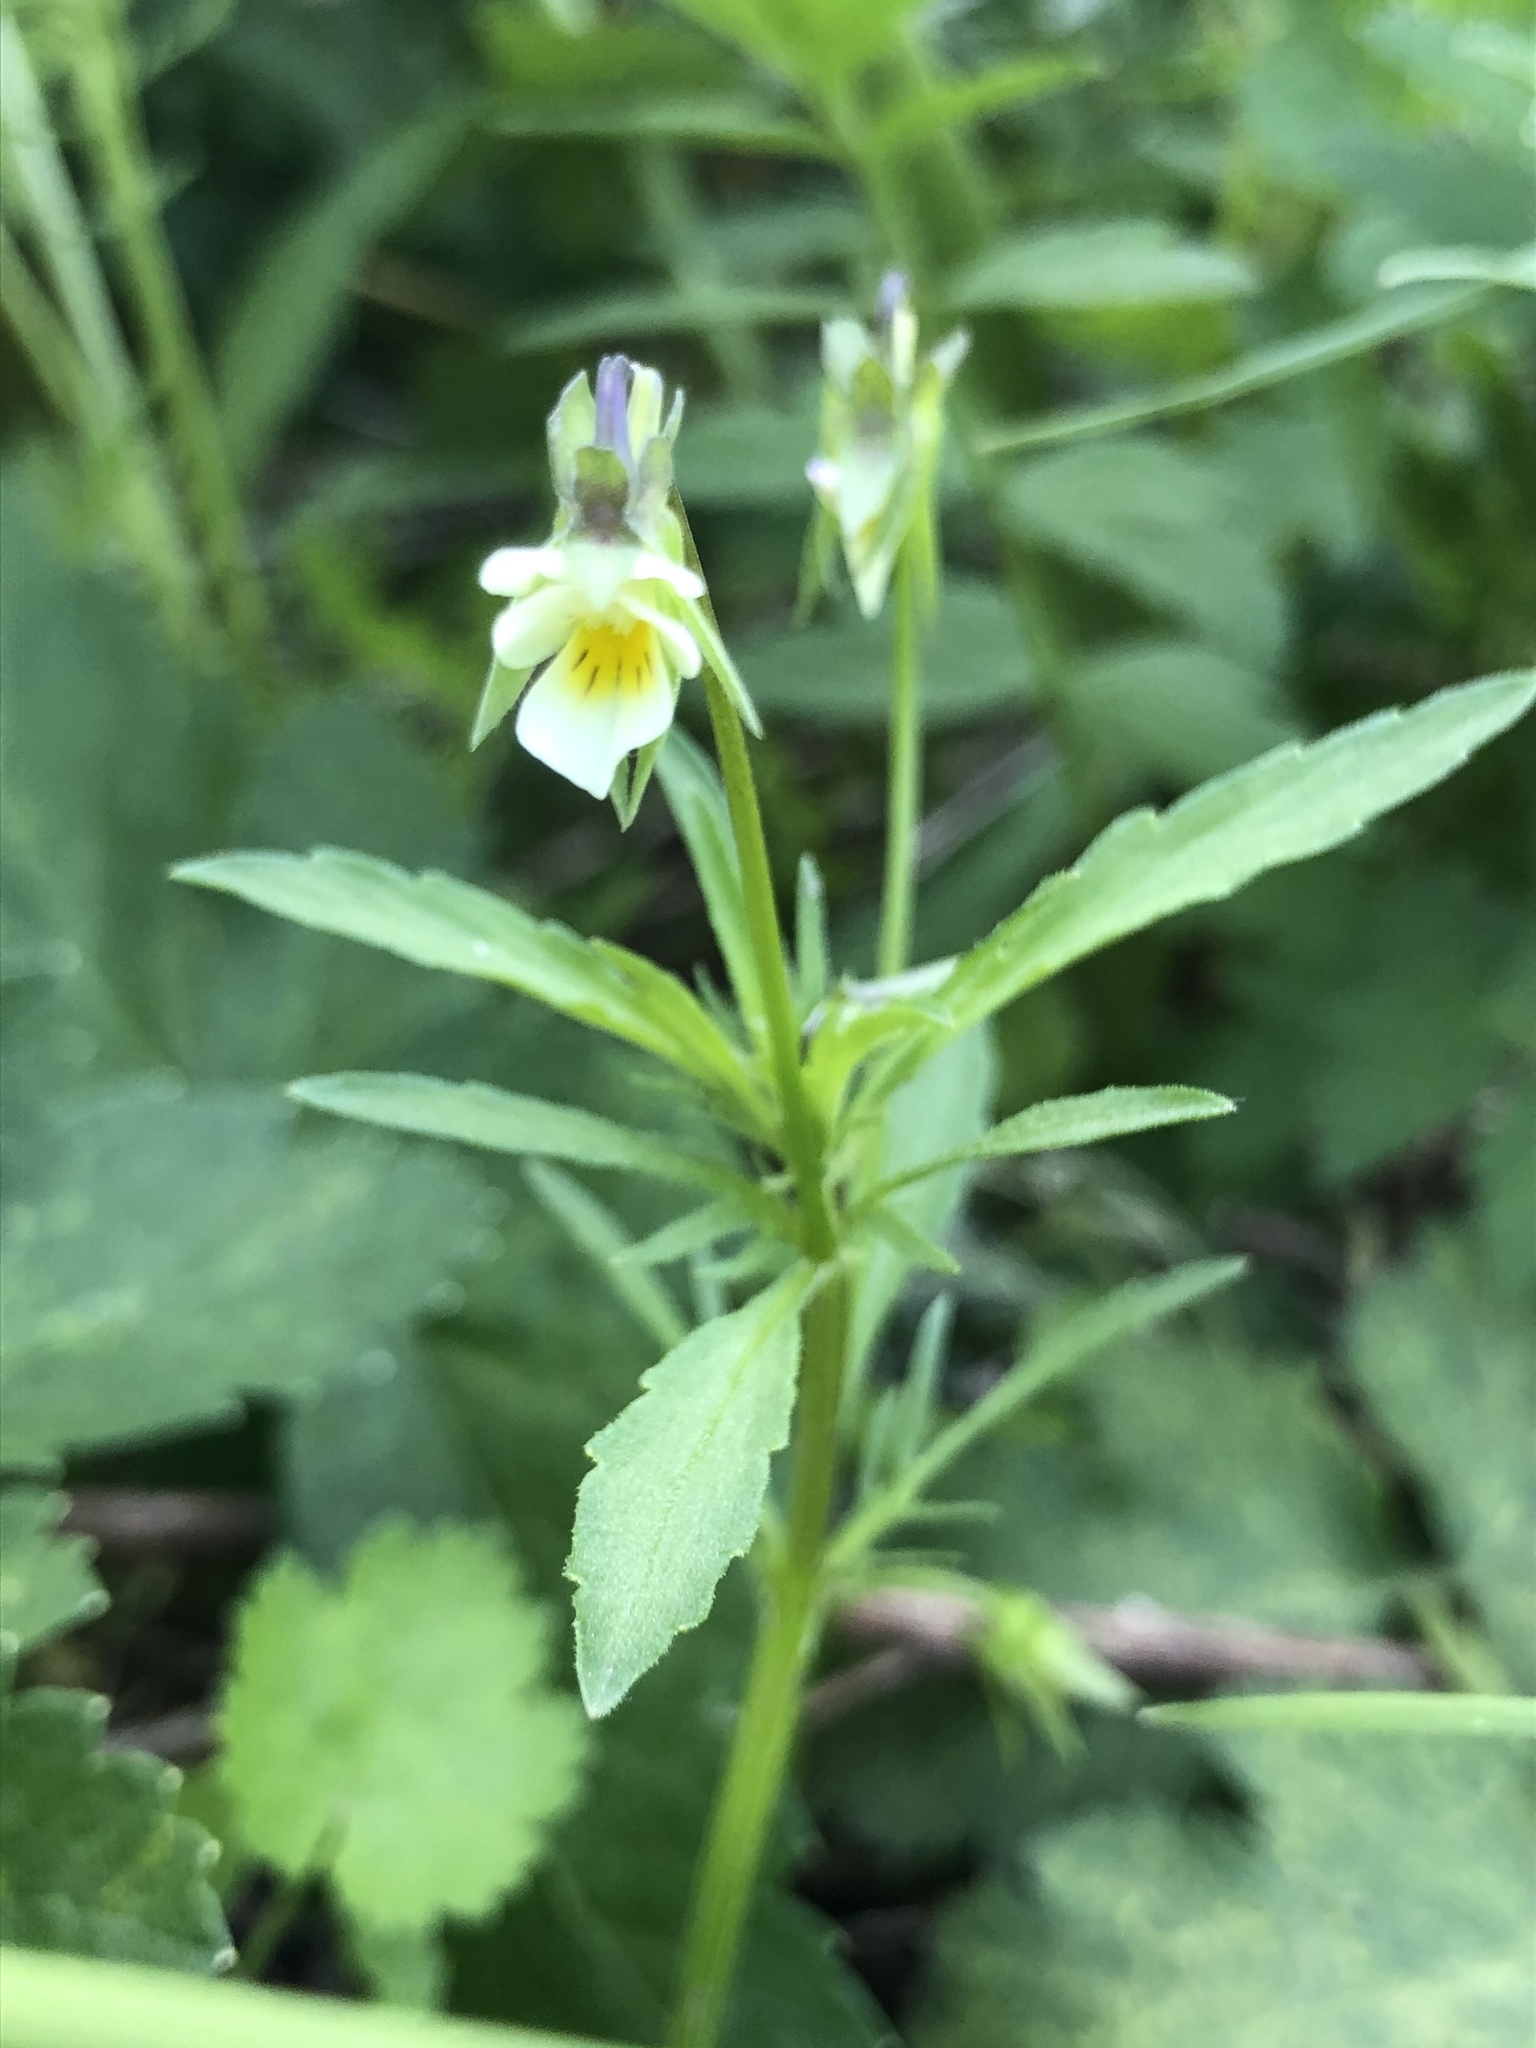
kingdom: Plantae
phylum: Tracheophyta
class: Magnoliopsida
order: Malpighiales
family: Violaceae
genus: Viola
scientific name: Viola arvensis
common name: Field pansy
